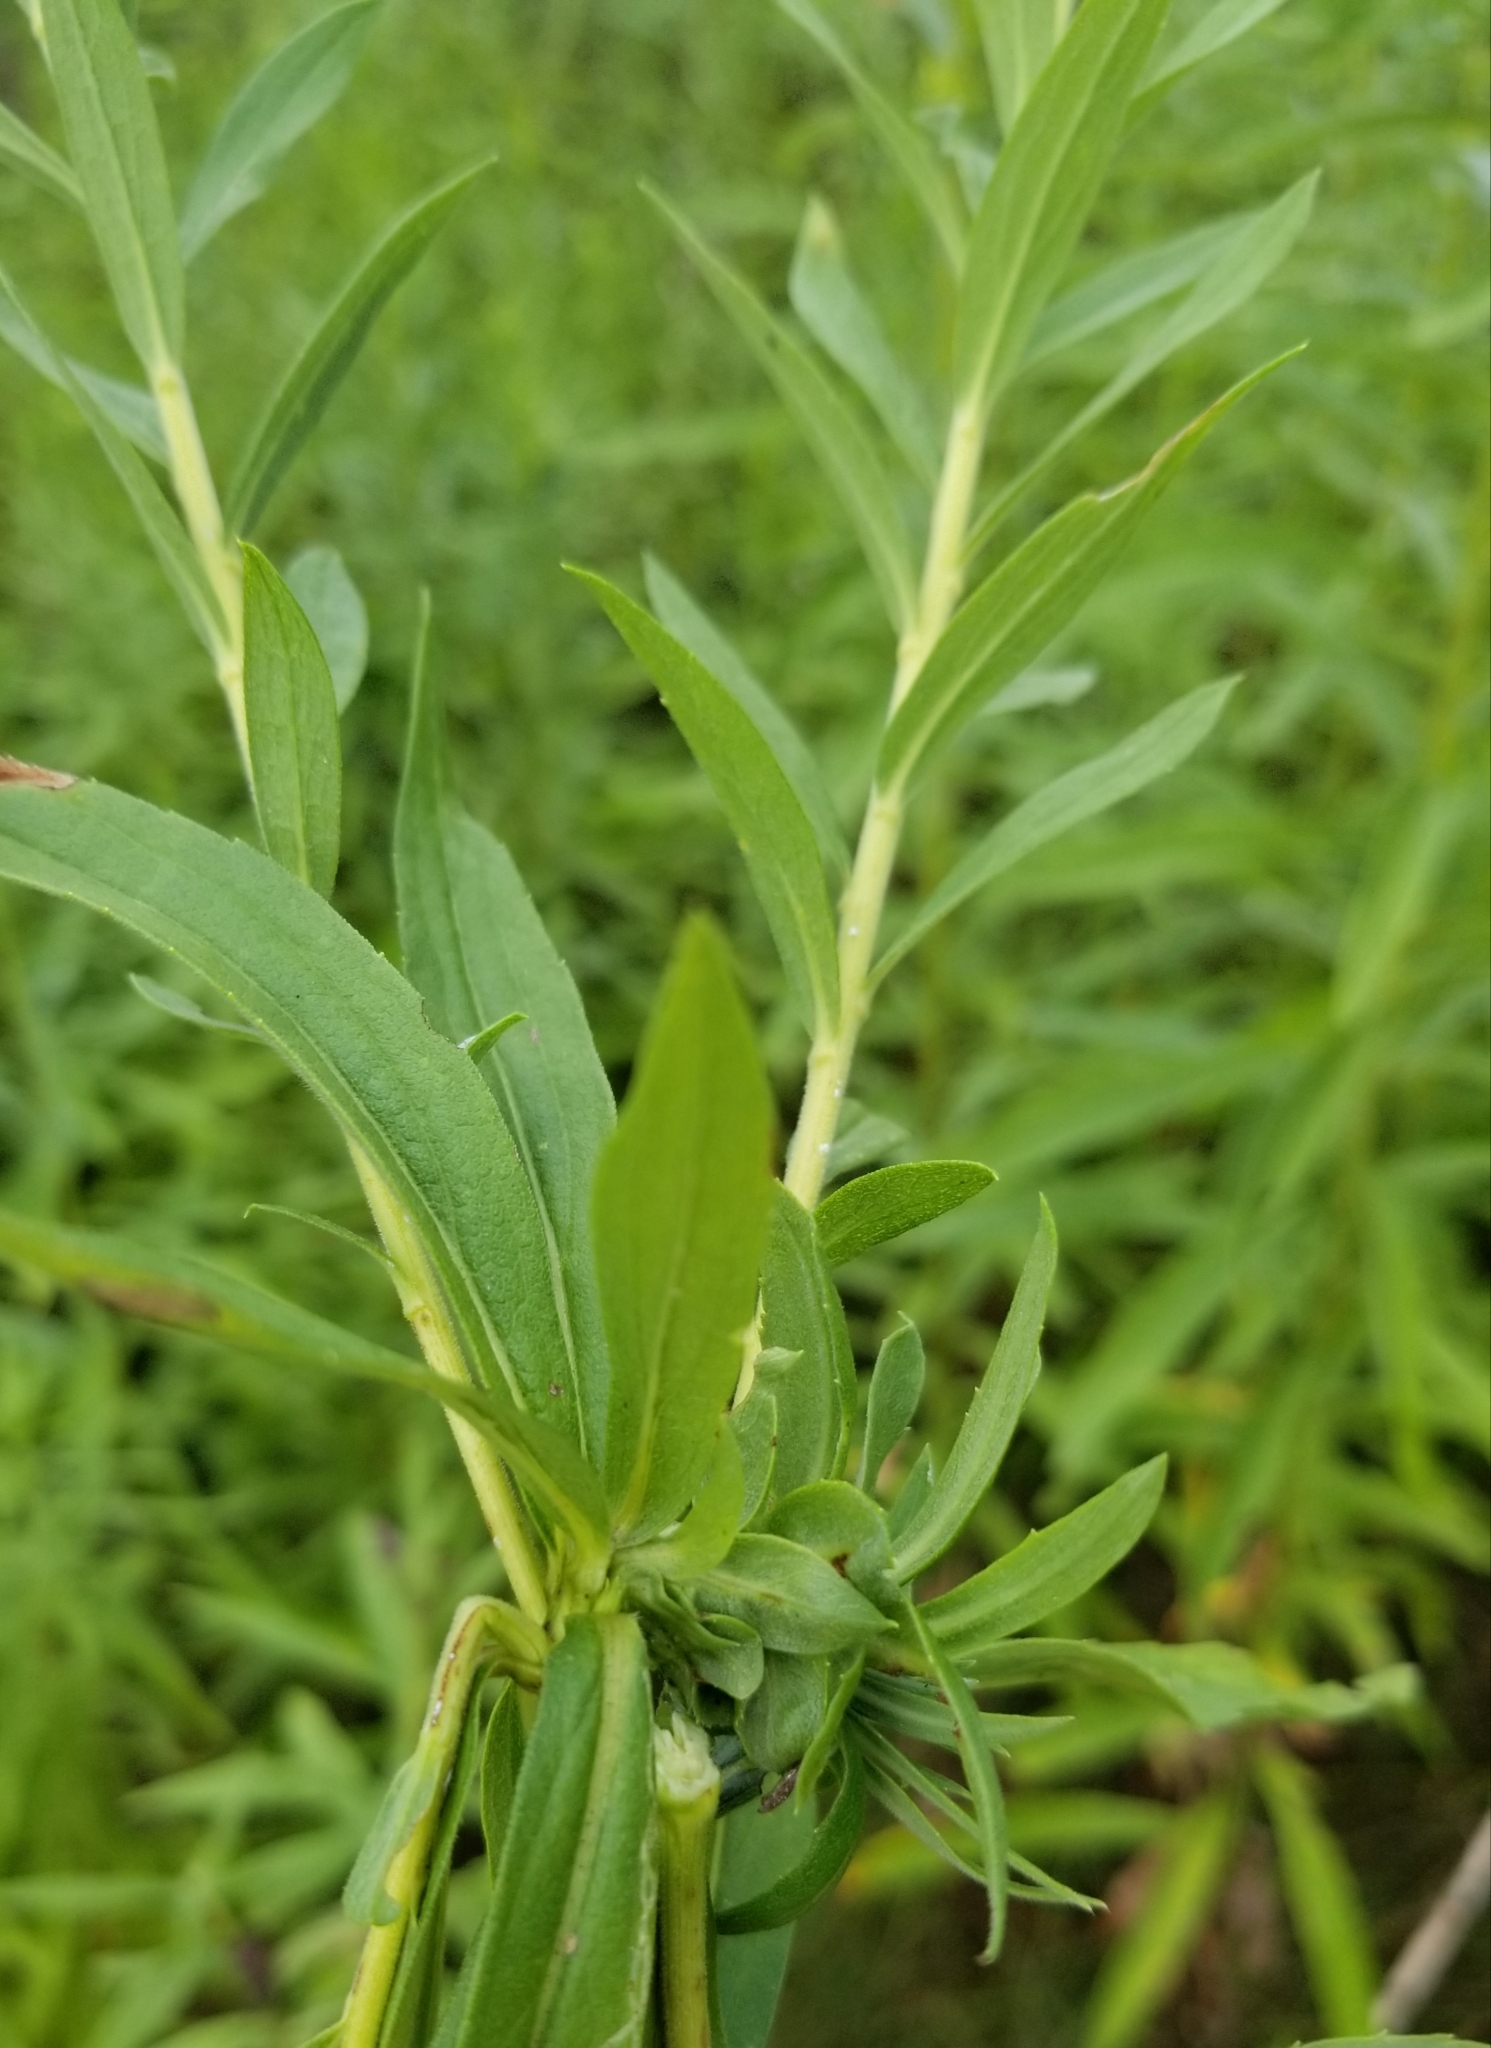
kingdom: Plantae
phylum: Tracheophyta
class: Magnoliopsida
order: Asterales
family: Asteraceae
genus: Solidago
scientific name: Solidago altissima
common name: Late goldenrod
